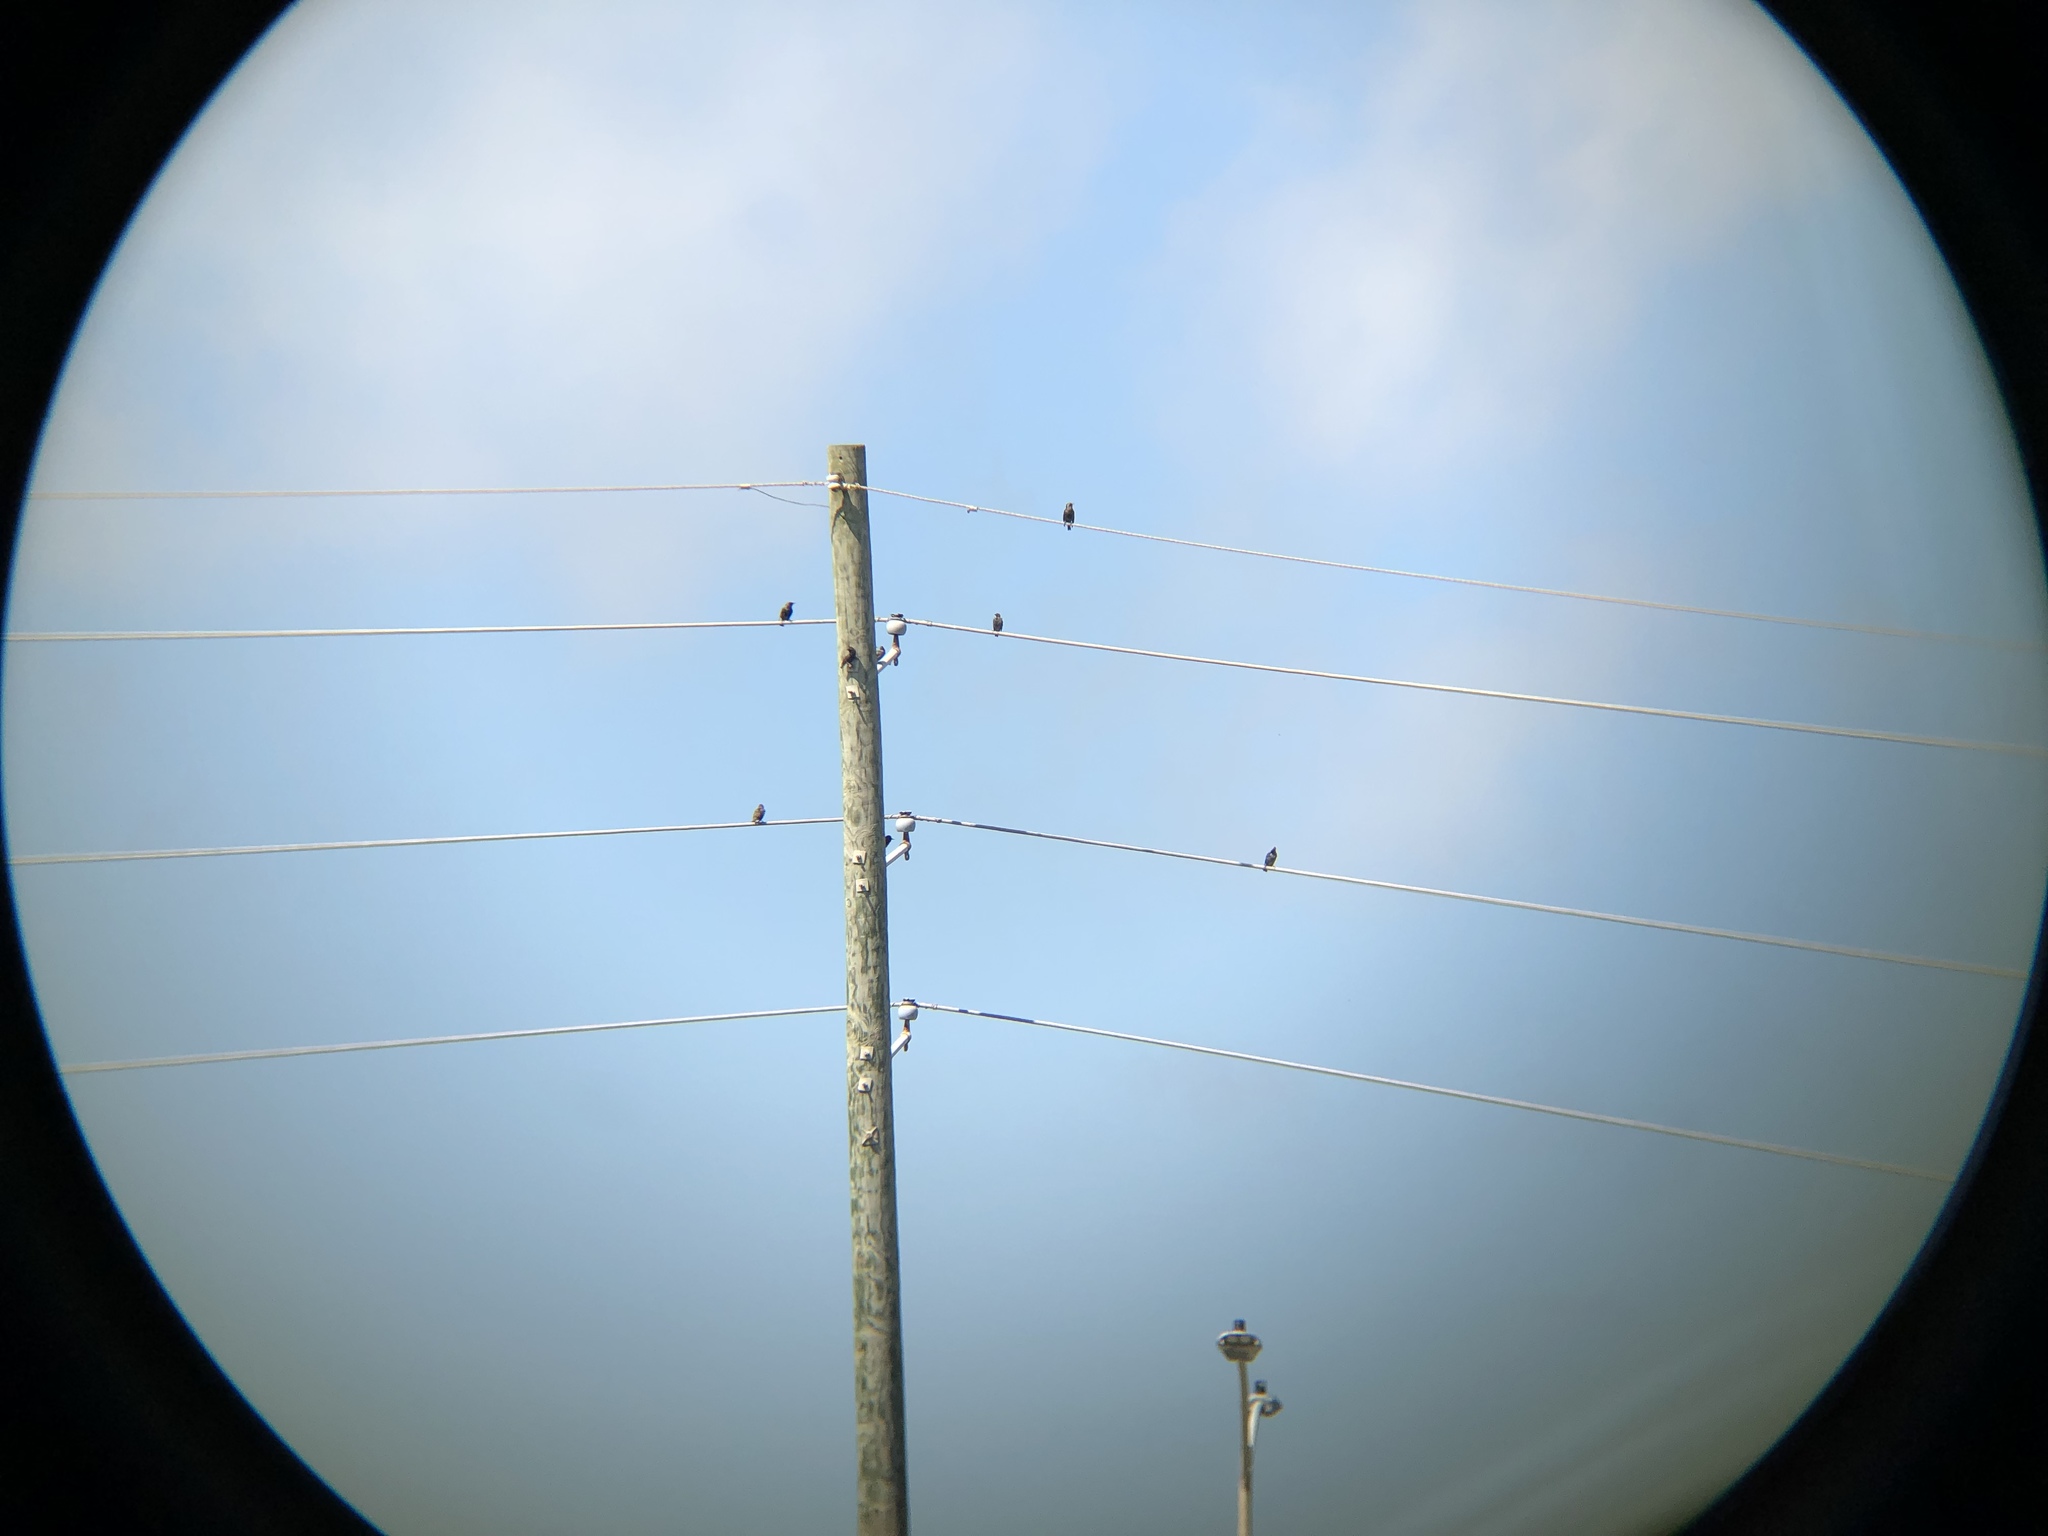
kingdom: Animalia
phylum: Chordata
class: Aves
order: Passeriformes
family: Sturnidae
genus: Sturnus
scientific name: Sturnus vulgaris
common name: Common starling
